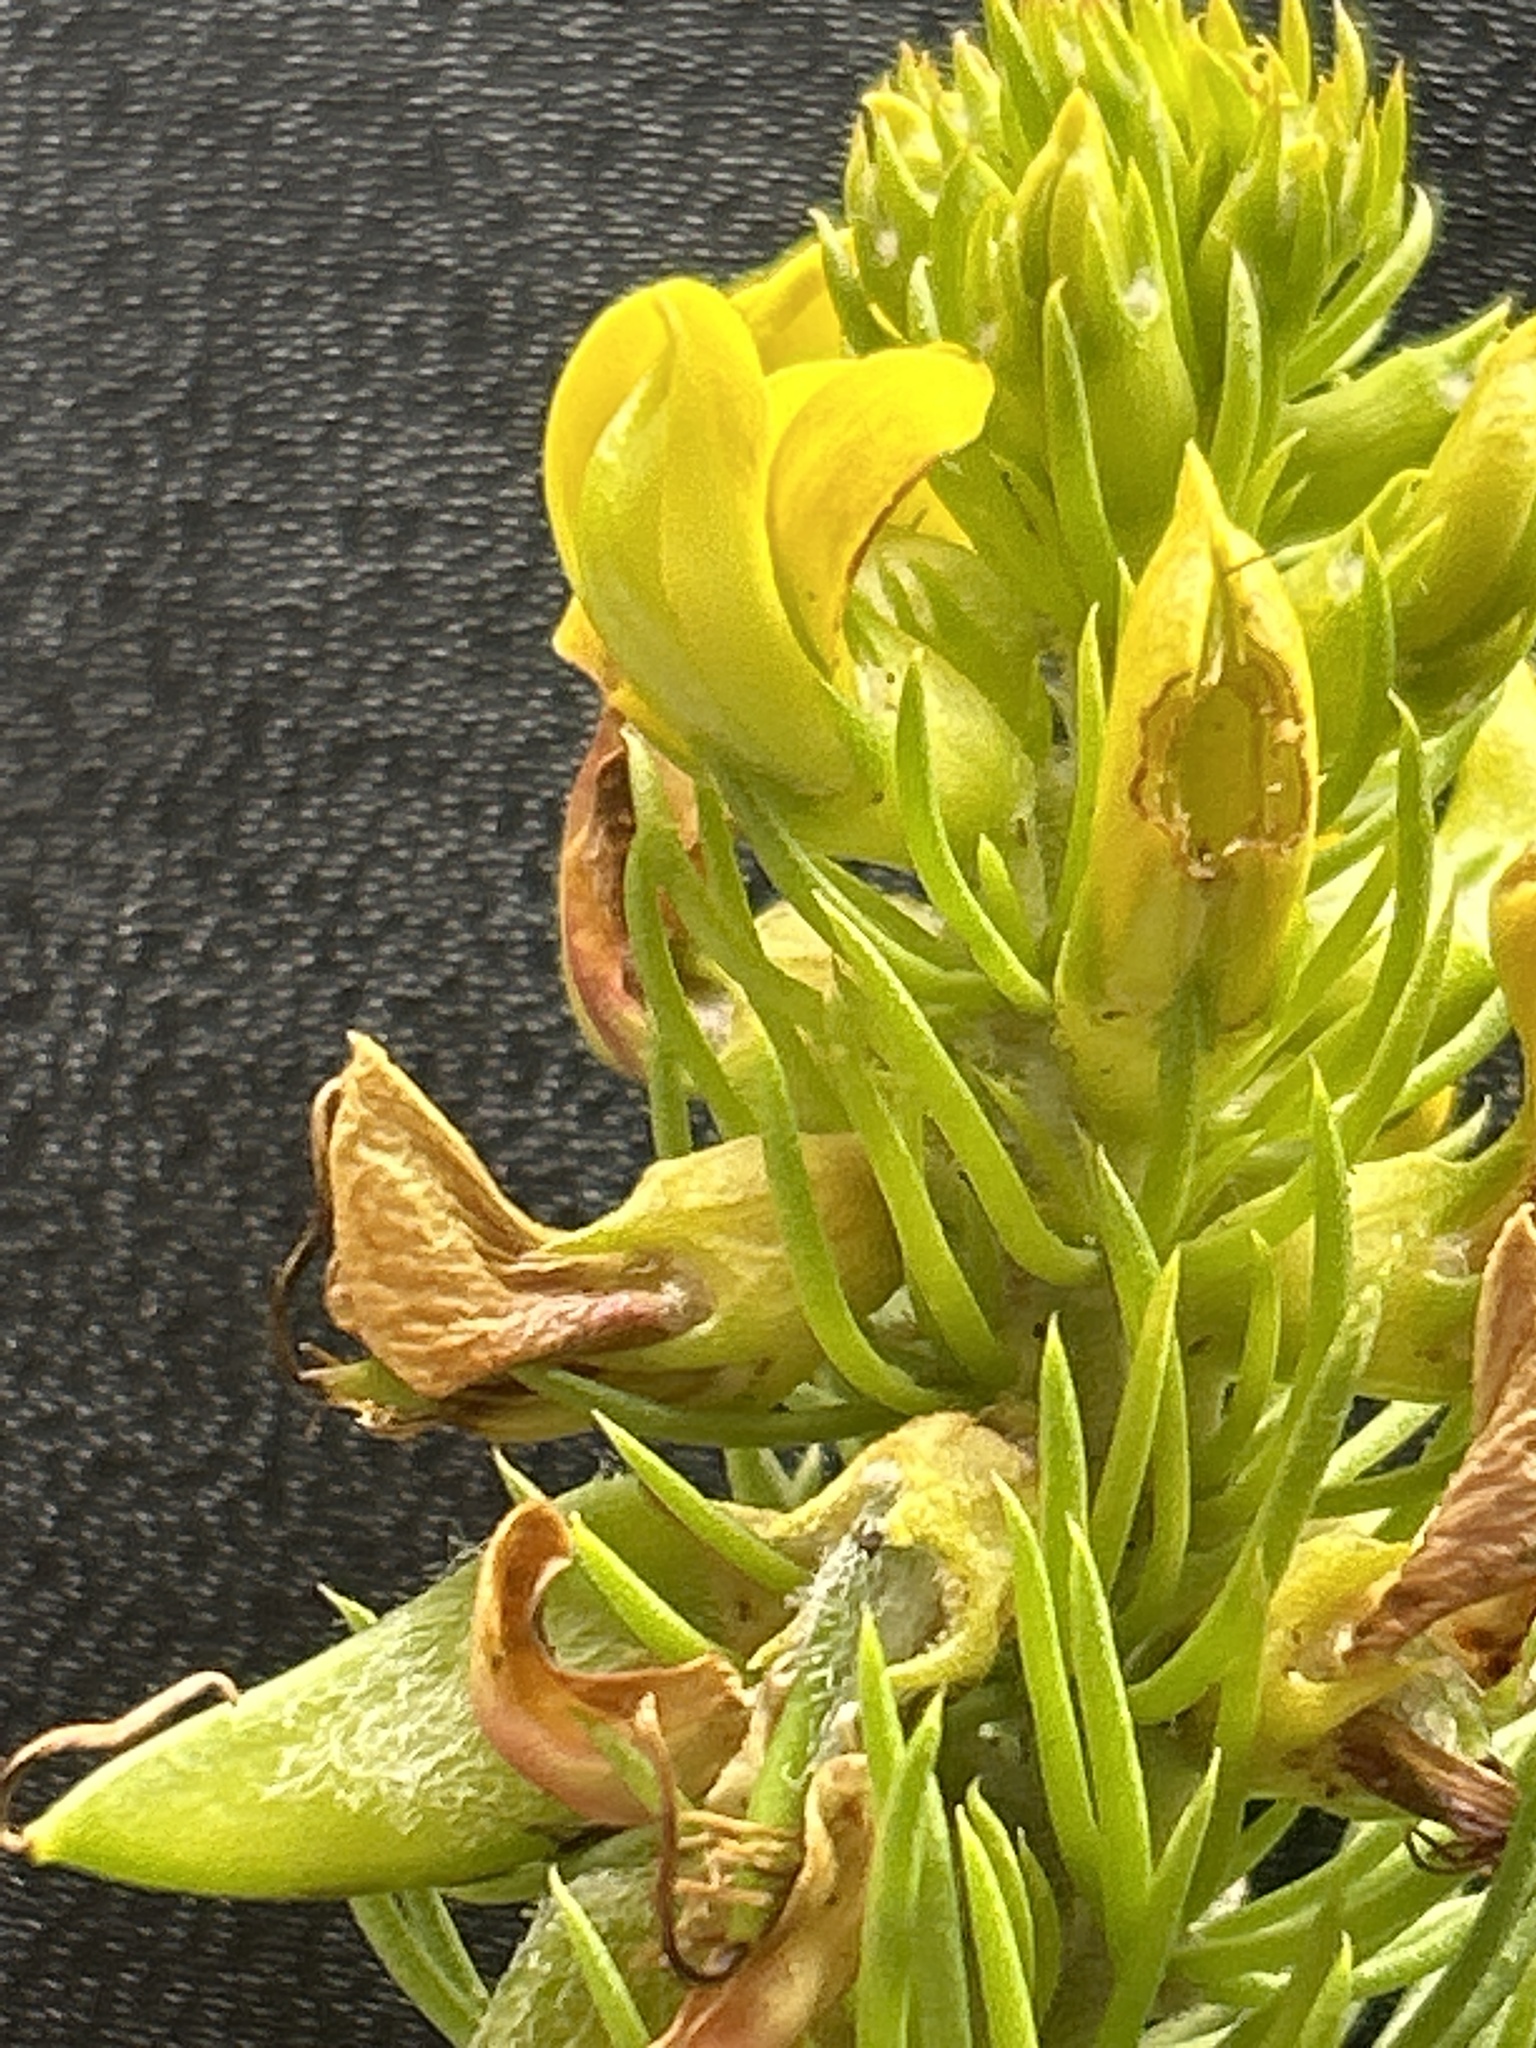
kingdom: Plantae
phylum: Tracheophyta
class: Magnoliopsida
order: Fabales
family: Fabaceae
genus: Aspalathus
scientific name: Aspalathus alopecurus
